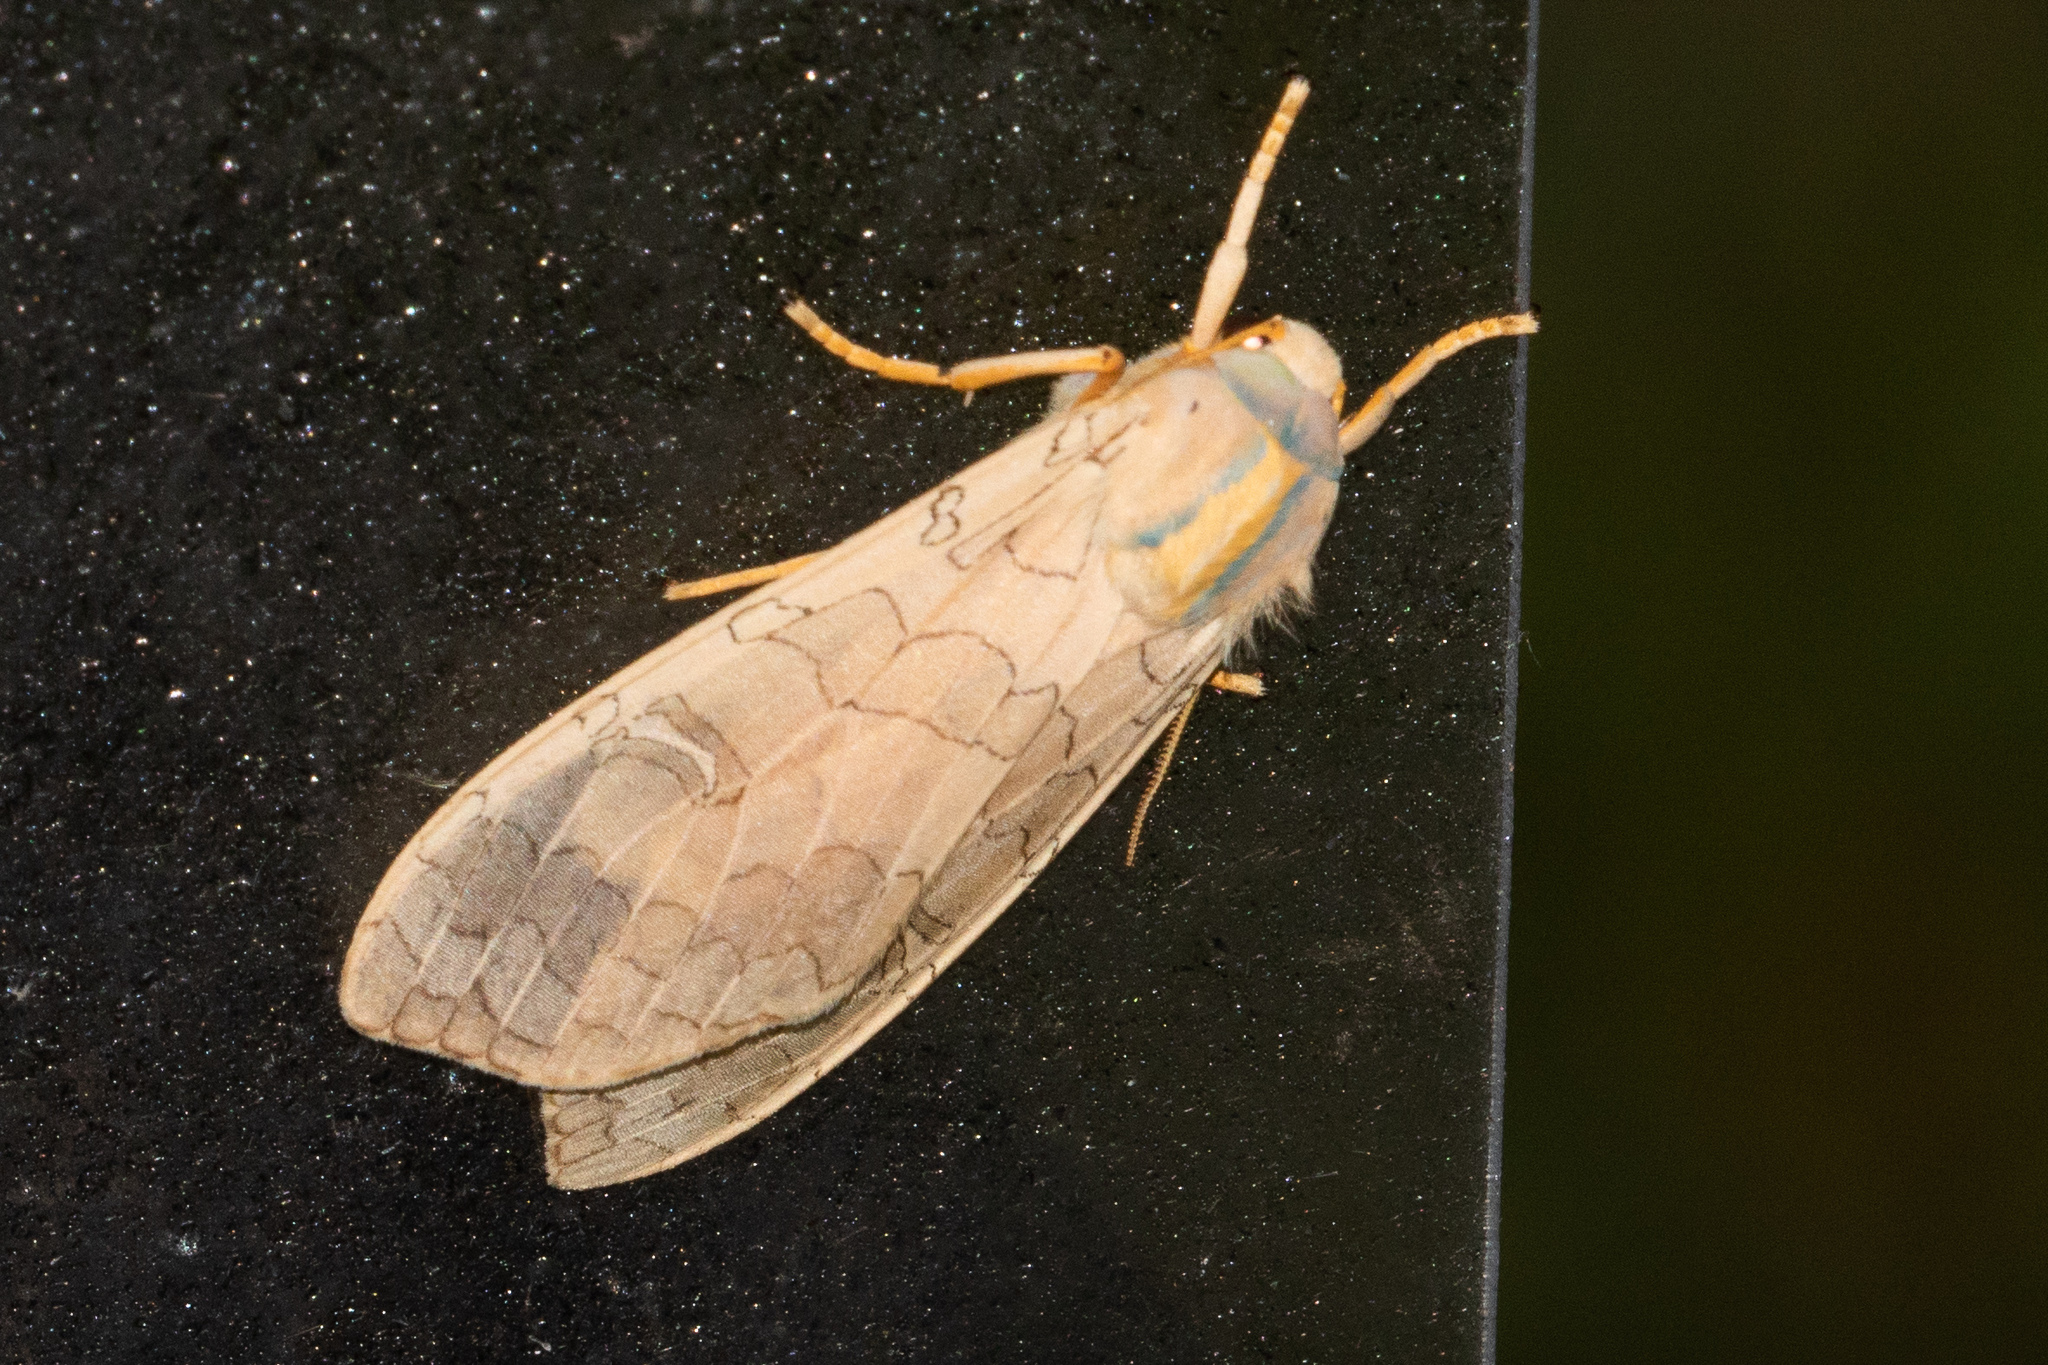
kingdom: Animalia
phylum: Arthropoda
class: Insecta
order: Lepidoptera
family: Erebidae
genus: Halysidota
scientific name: Halysidota
